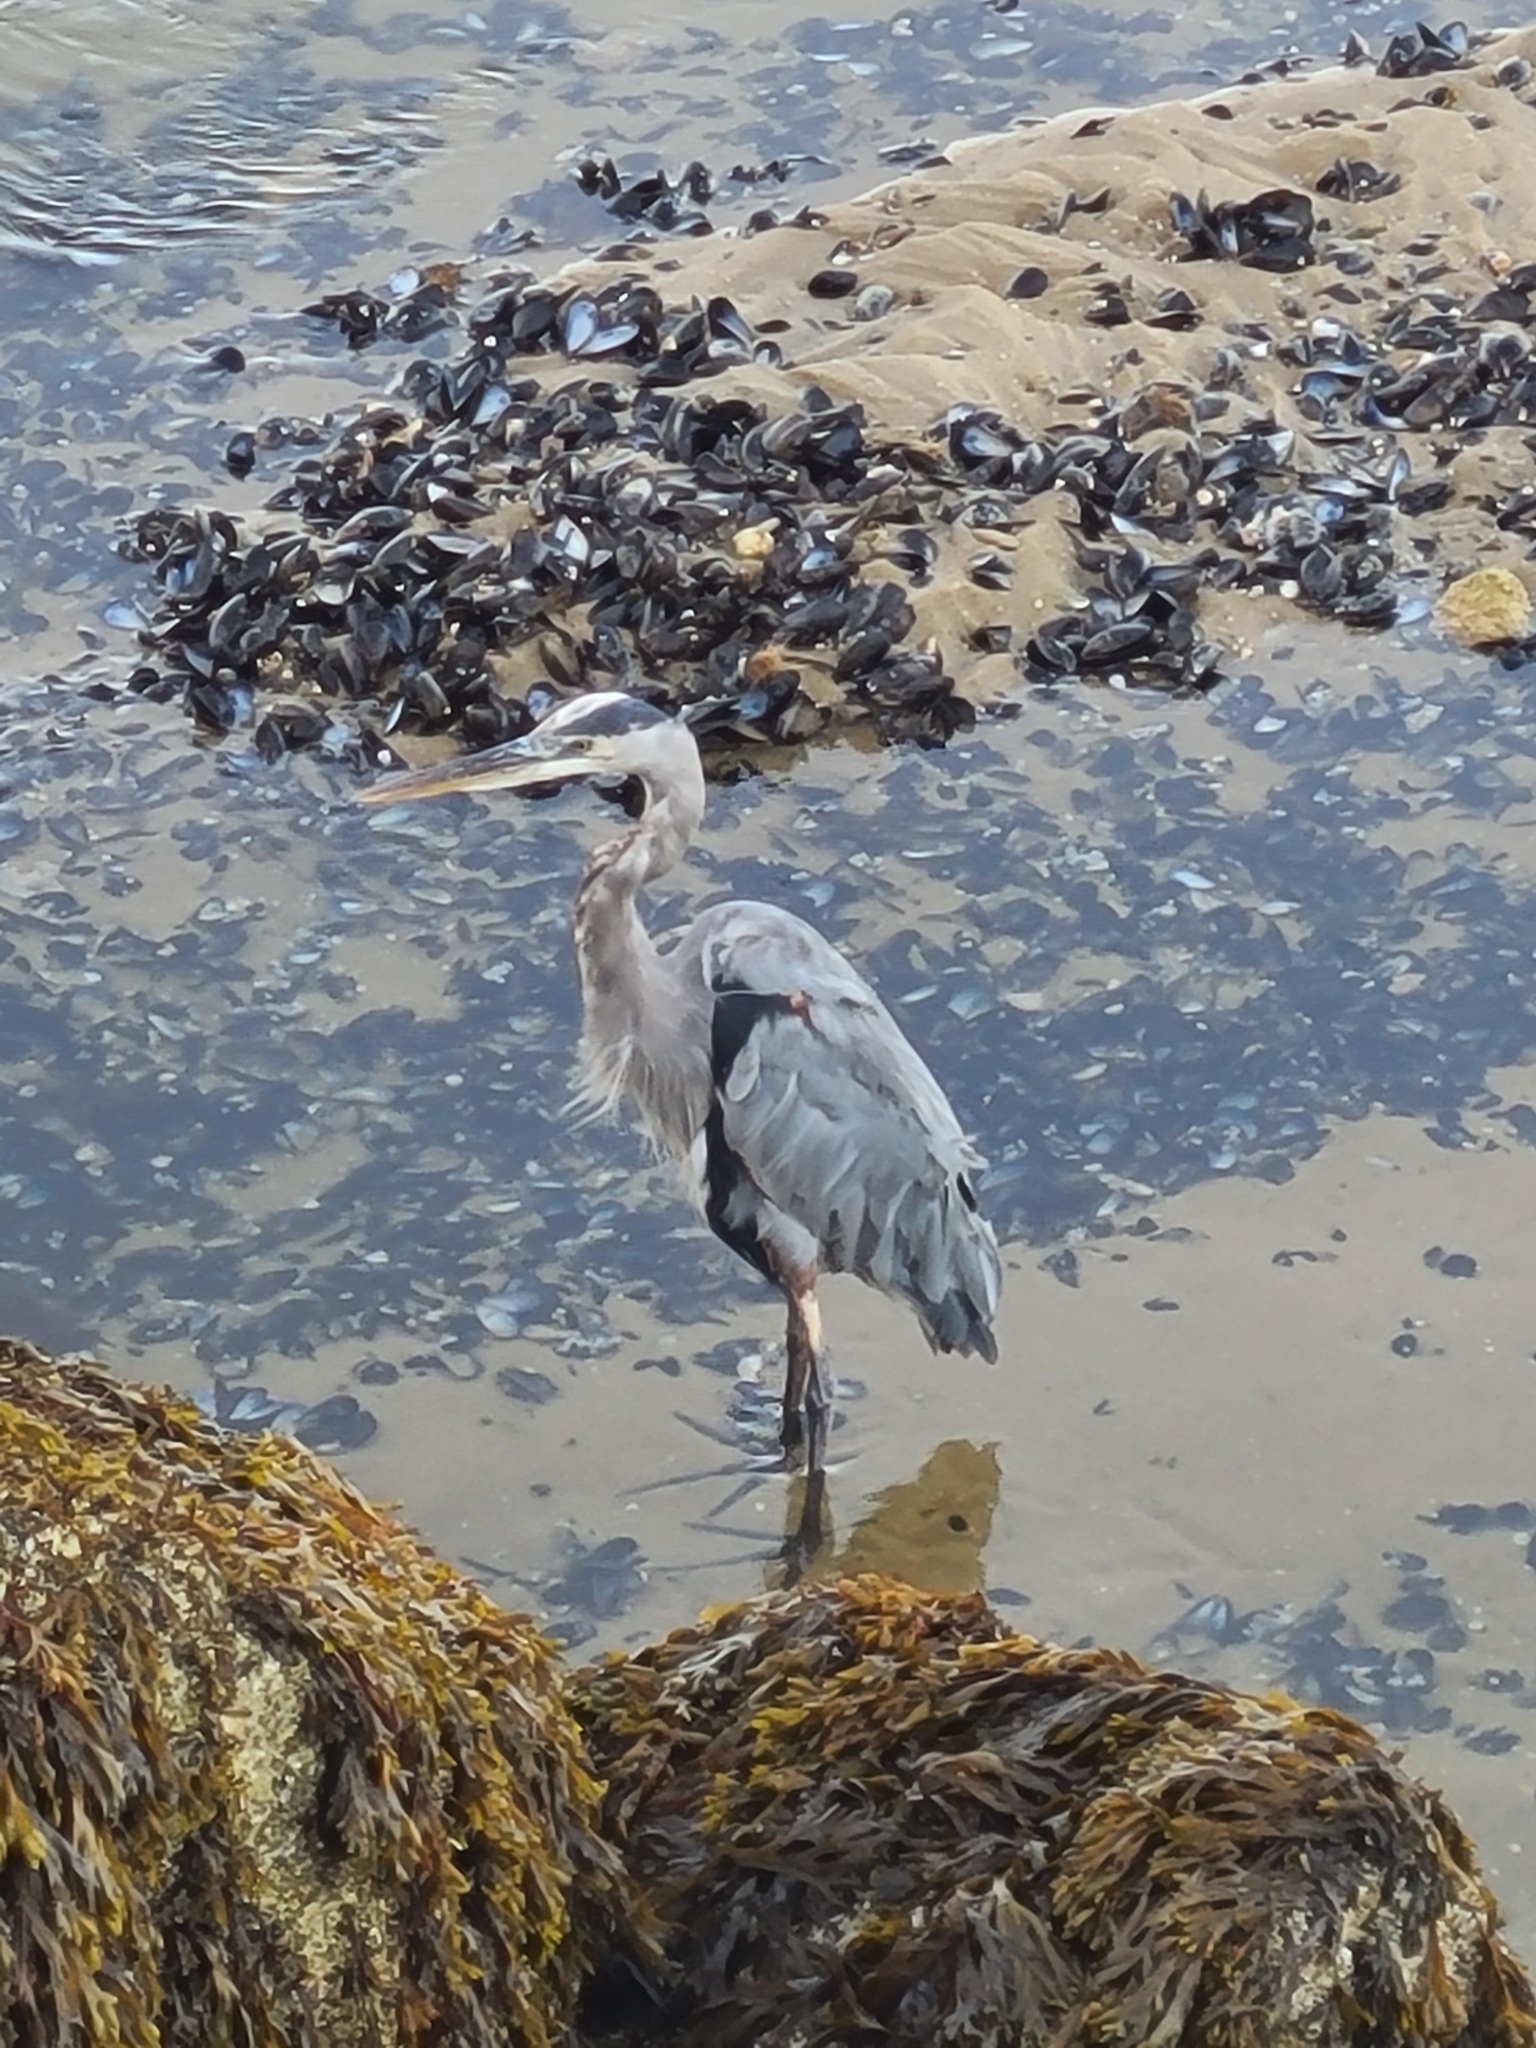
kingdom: Animalia
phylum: Chordata
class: Aves
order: Pelecaniformes
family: Ardeidae
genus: Ardea
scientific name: Ardea herodias
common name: Great blue heron
